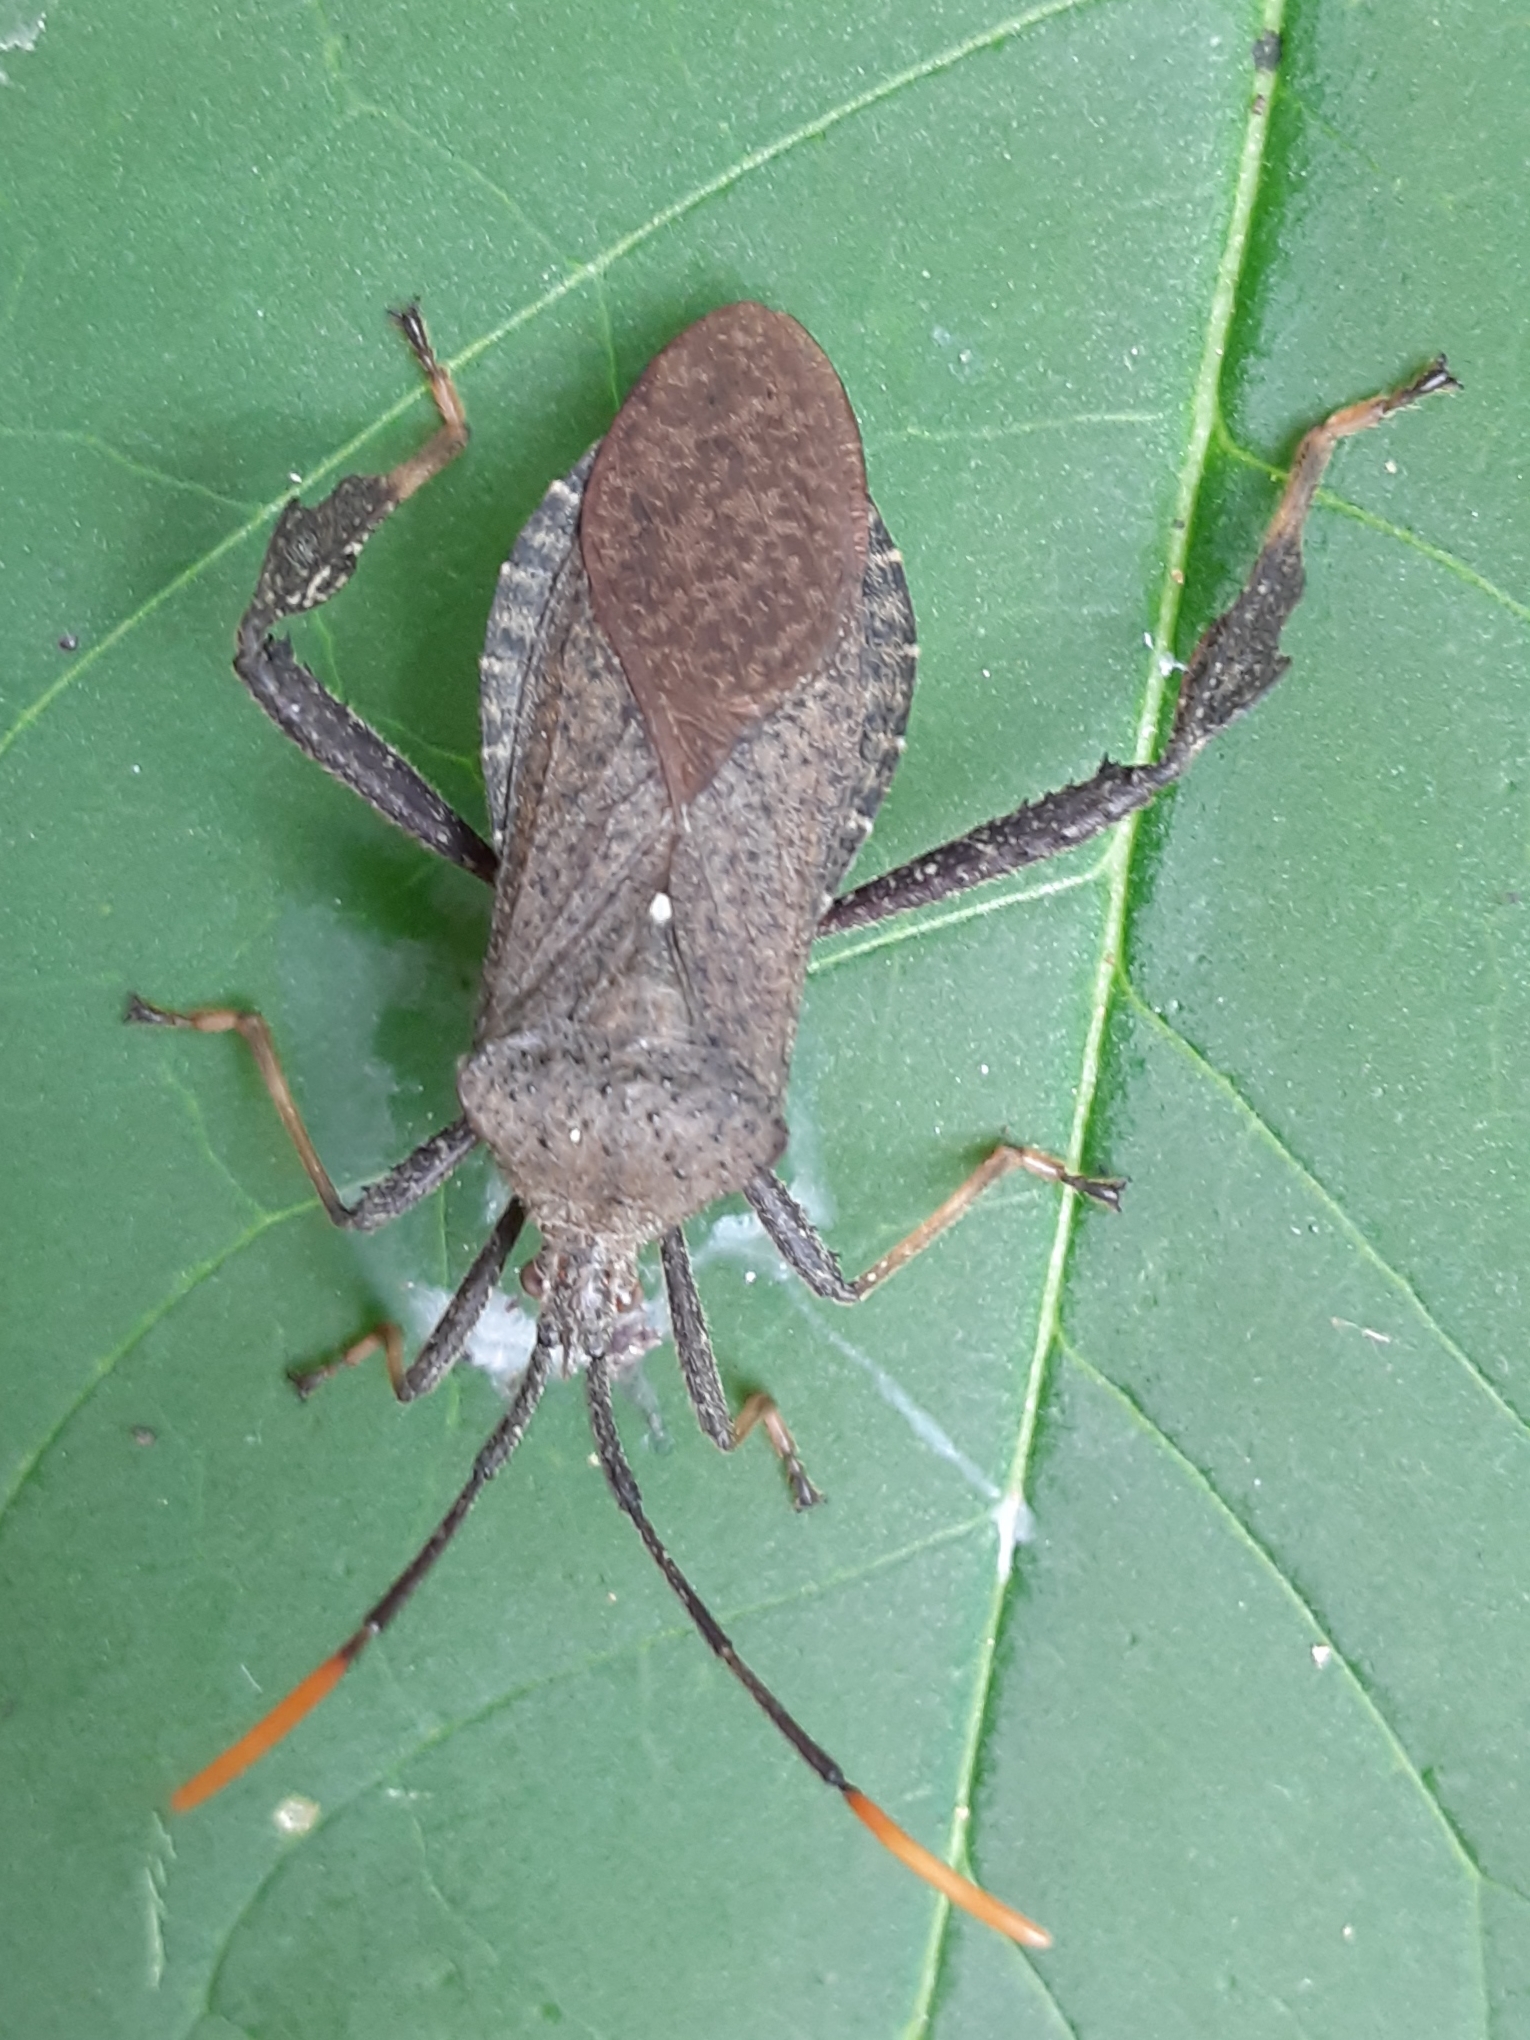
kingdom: Animalia
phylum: Arthropoda
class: Insecta
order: Hemiptera
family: Coreidae
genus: Acanthocephala
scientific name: Acanthocephala terminalis
